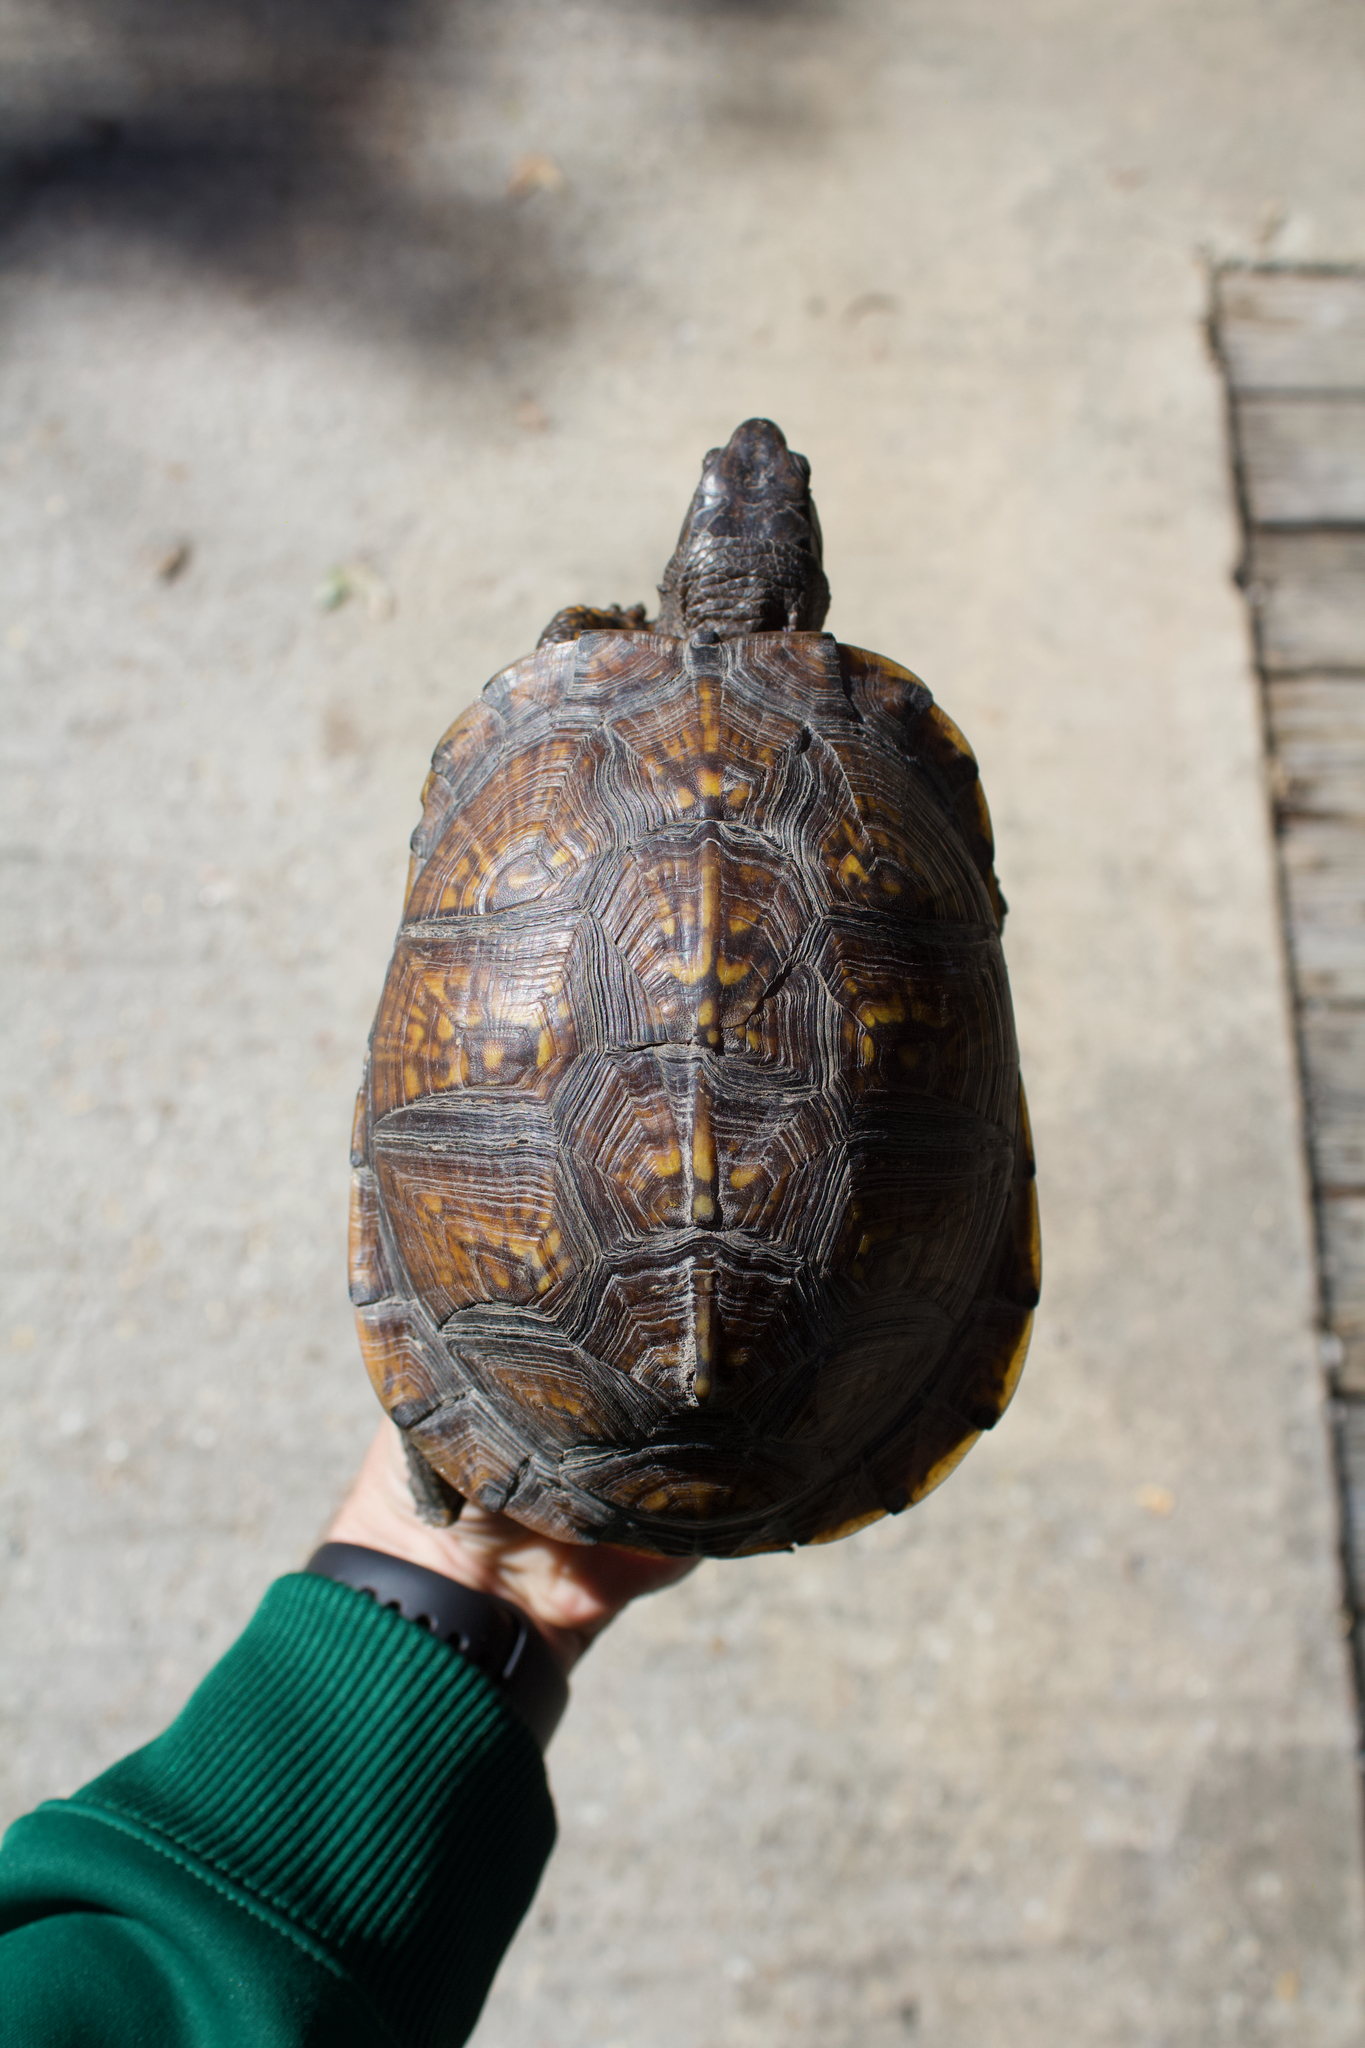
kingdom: Animalia
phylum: Chordata
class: Testudines
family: Emydidae
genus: Terrapene
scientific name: Terrapene carolina
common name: Common box turtle
